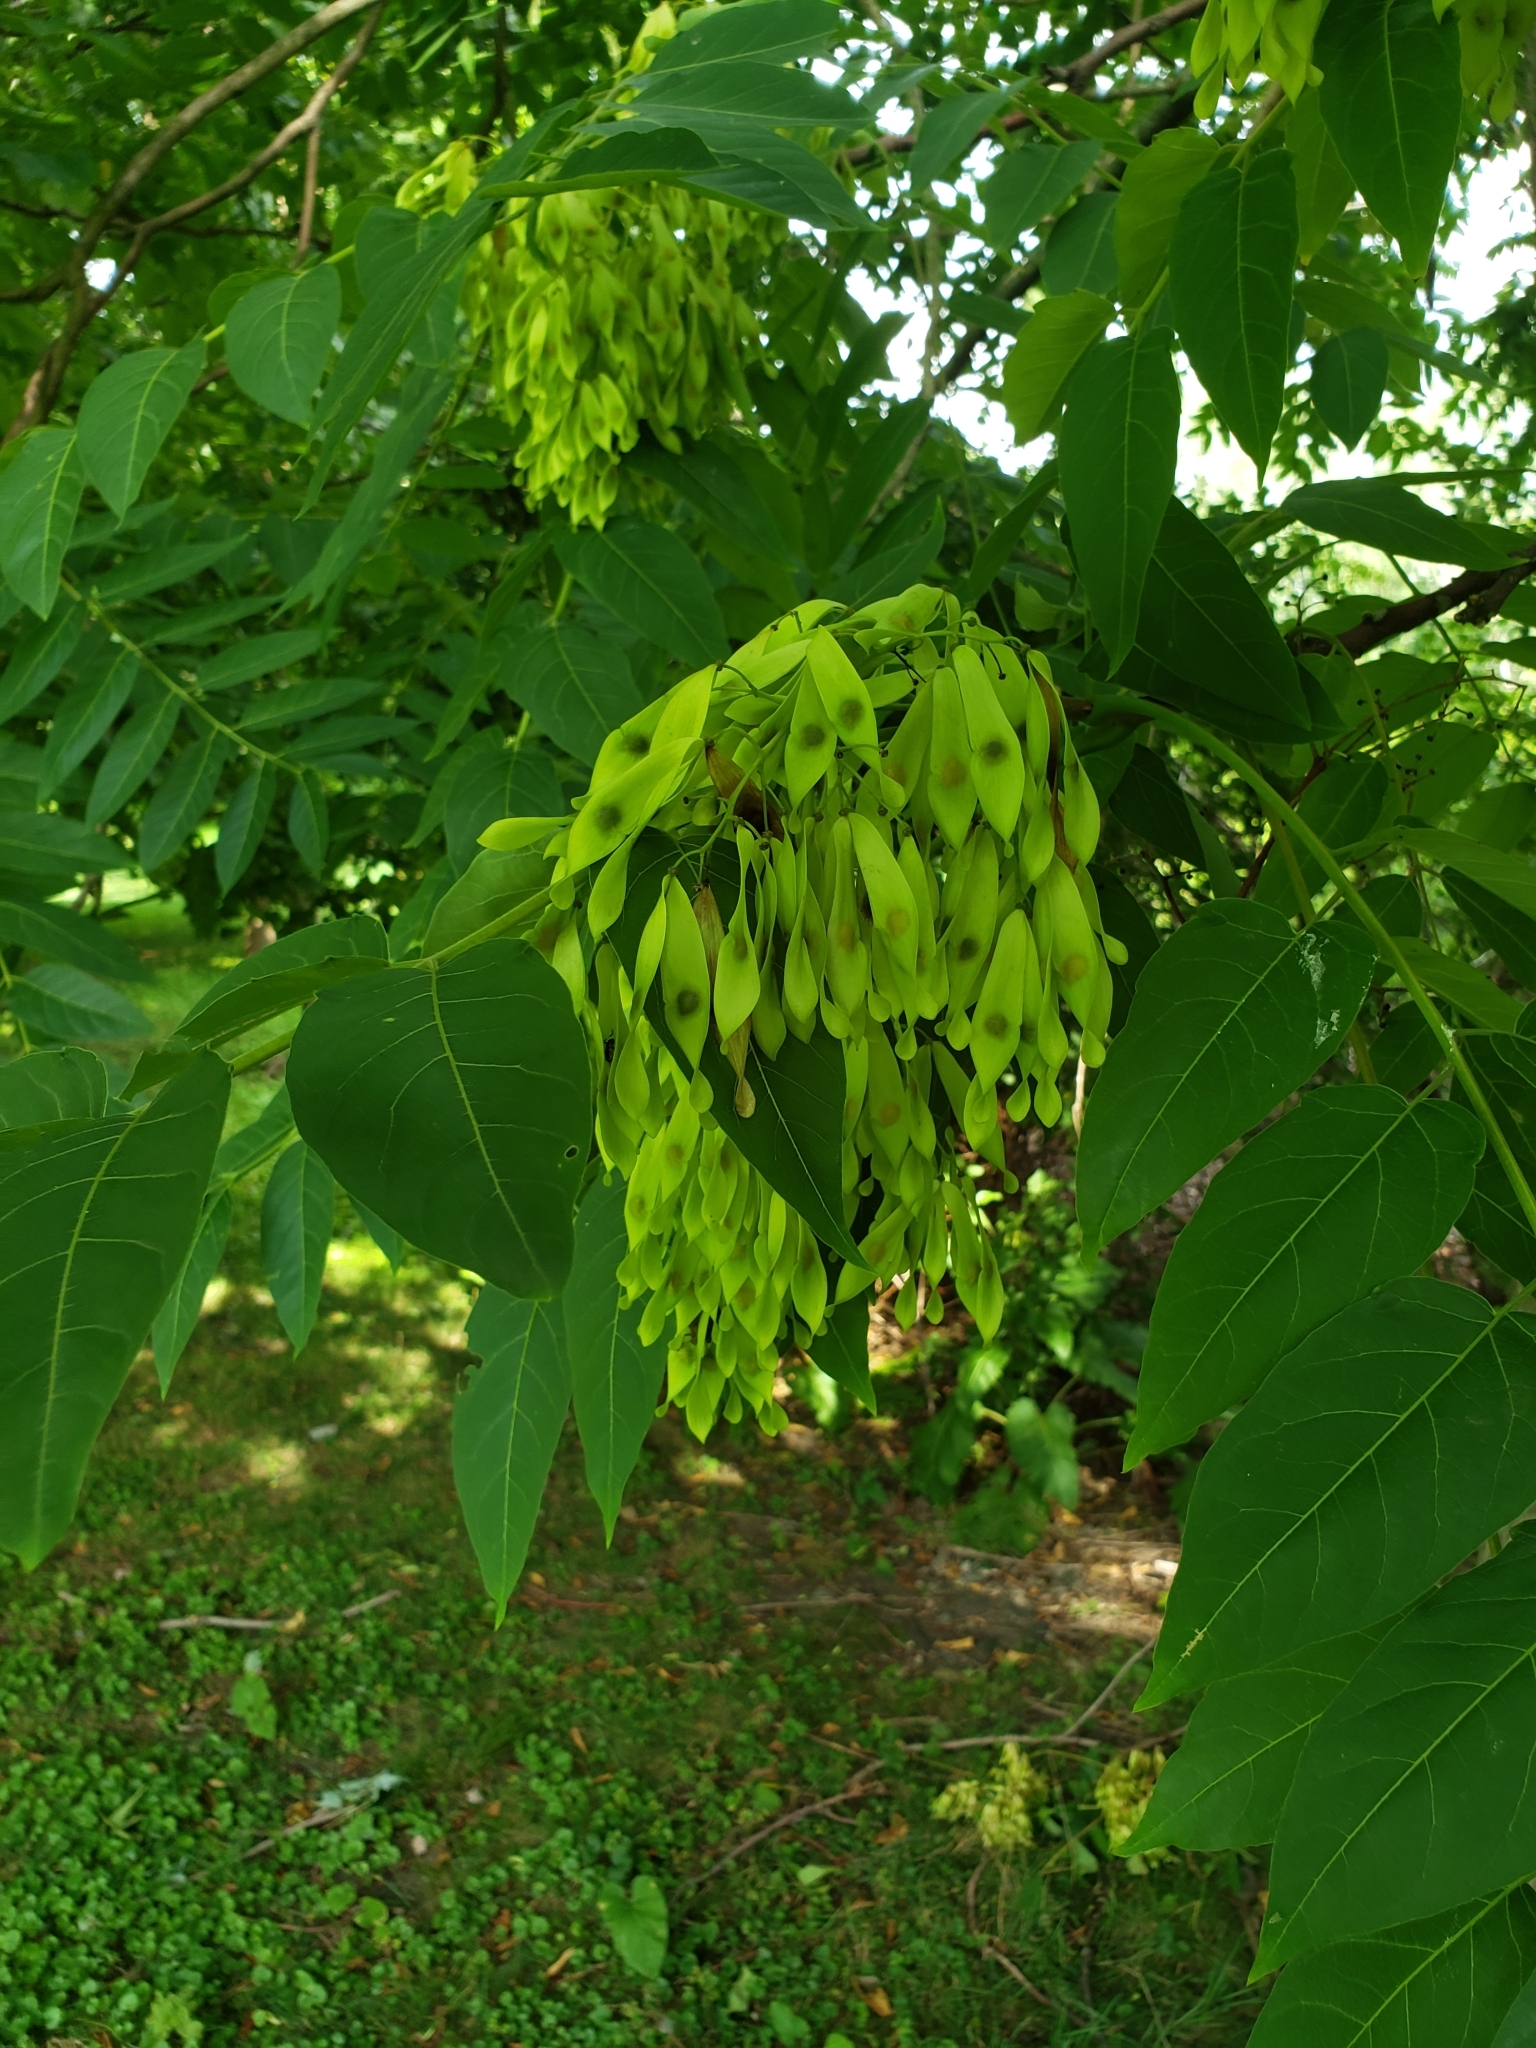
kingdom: Plantae
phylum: Tracheophyta
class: Magnoliopsida
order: Sapindales
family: Simaroubaceae
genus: Ailanthus
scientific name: Ailanthus altissima
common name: Tree-of-heaven
